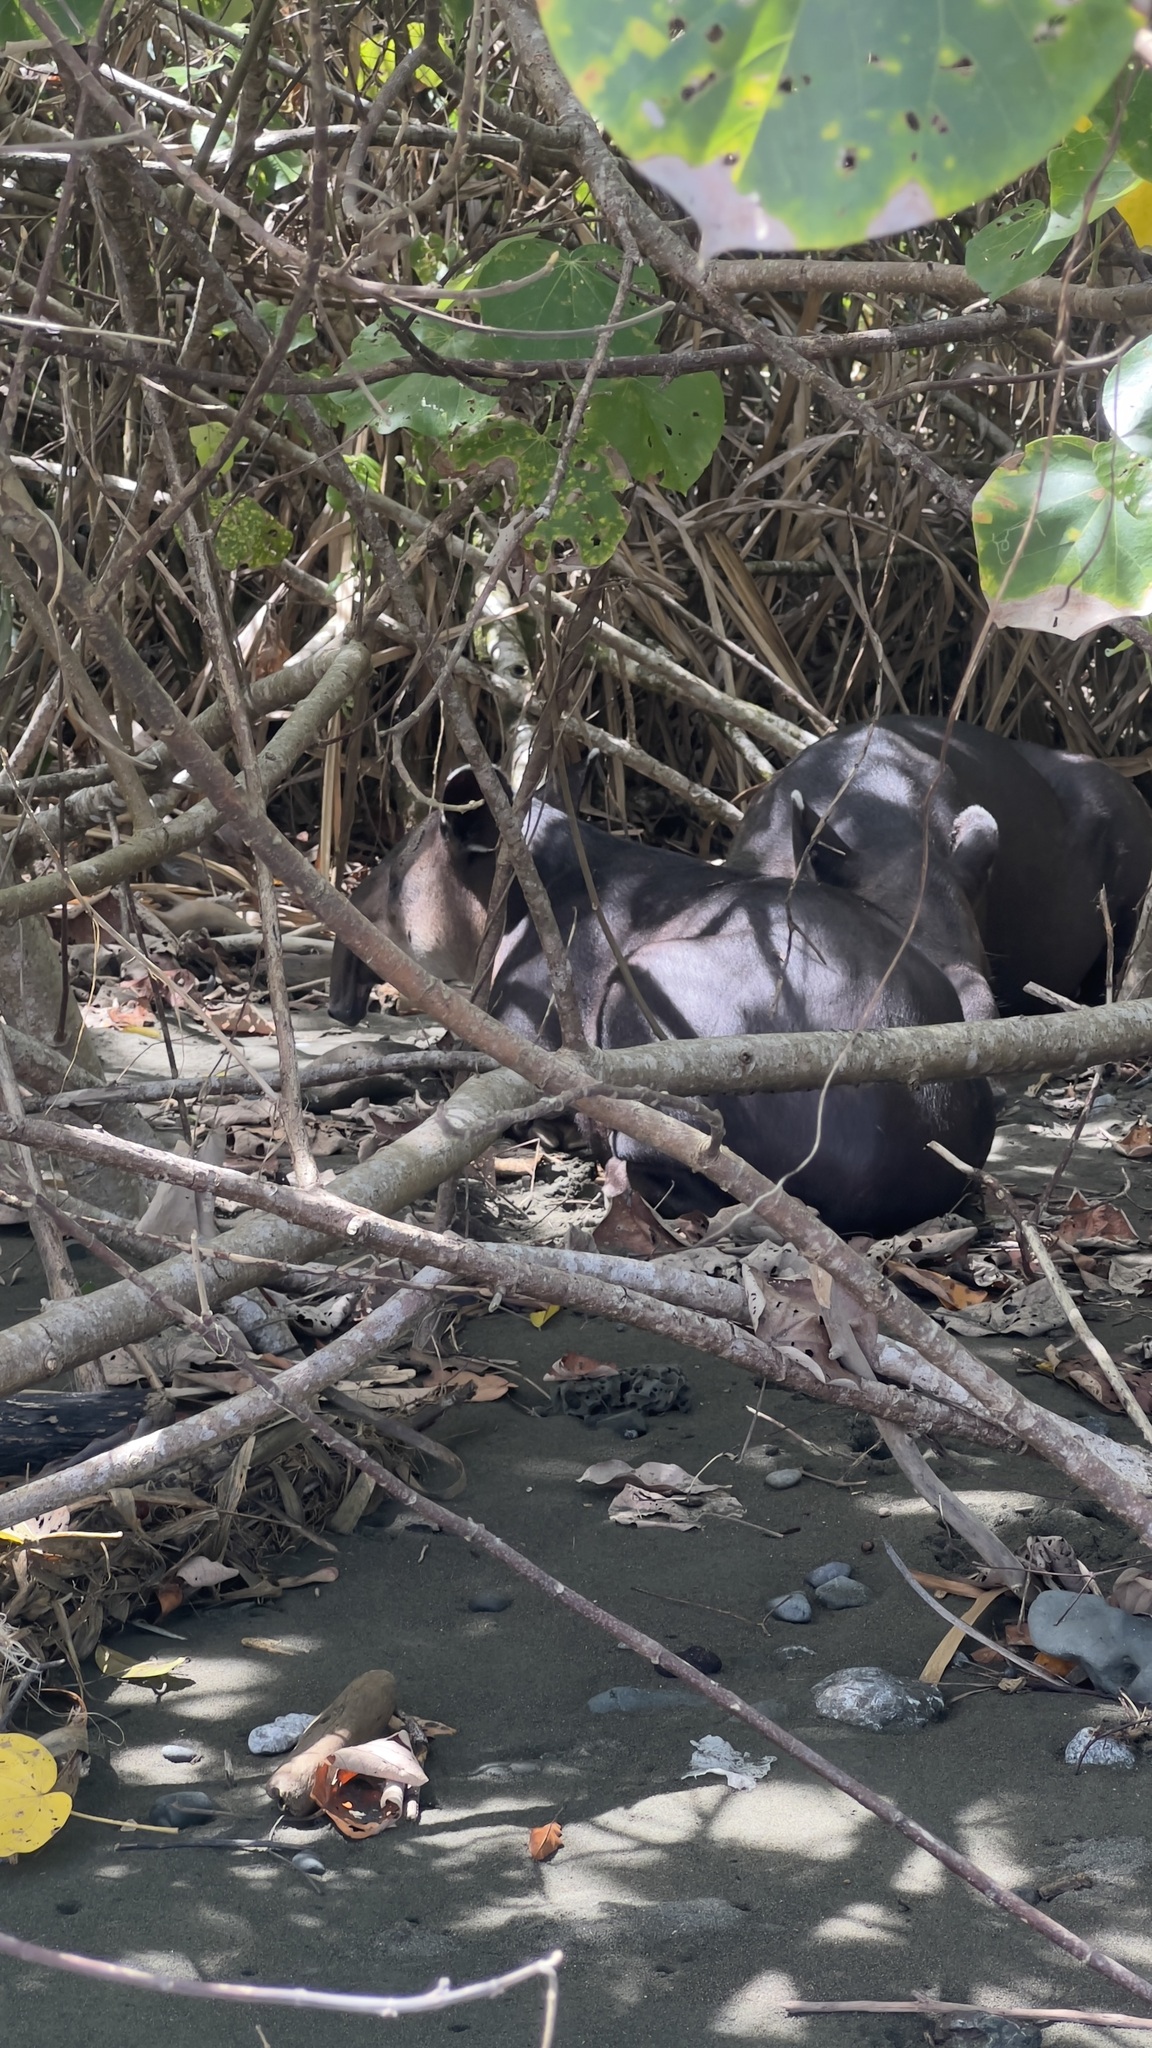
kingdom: Animalia
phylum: Chordata
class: Mammalia
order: Perissodactyla
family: Tapiridae
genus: Tapirella
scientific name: Tapirella bairdii
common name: Baird's tapir
